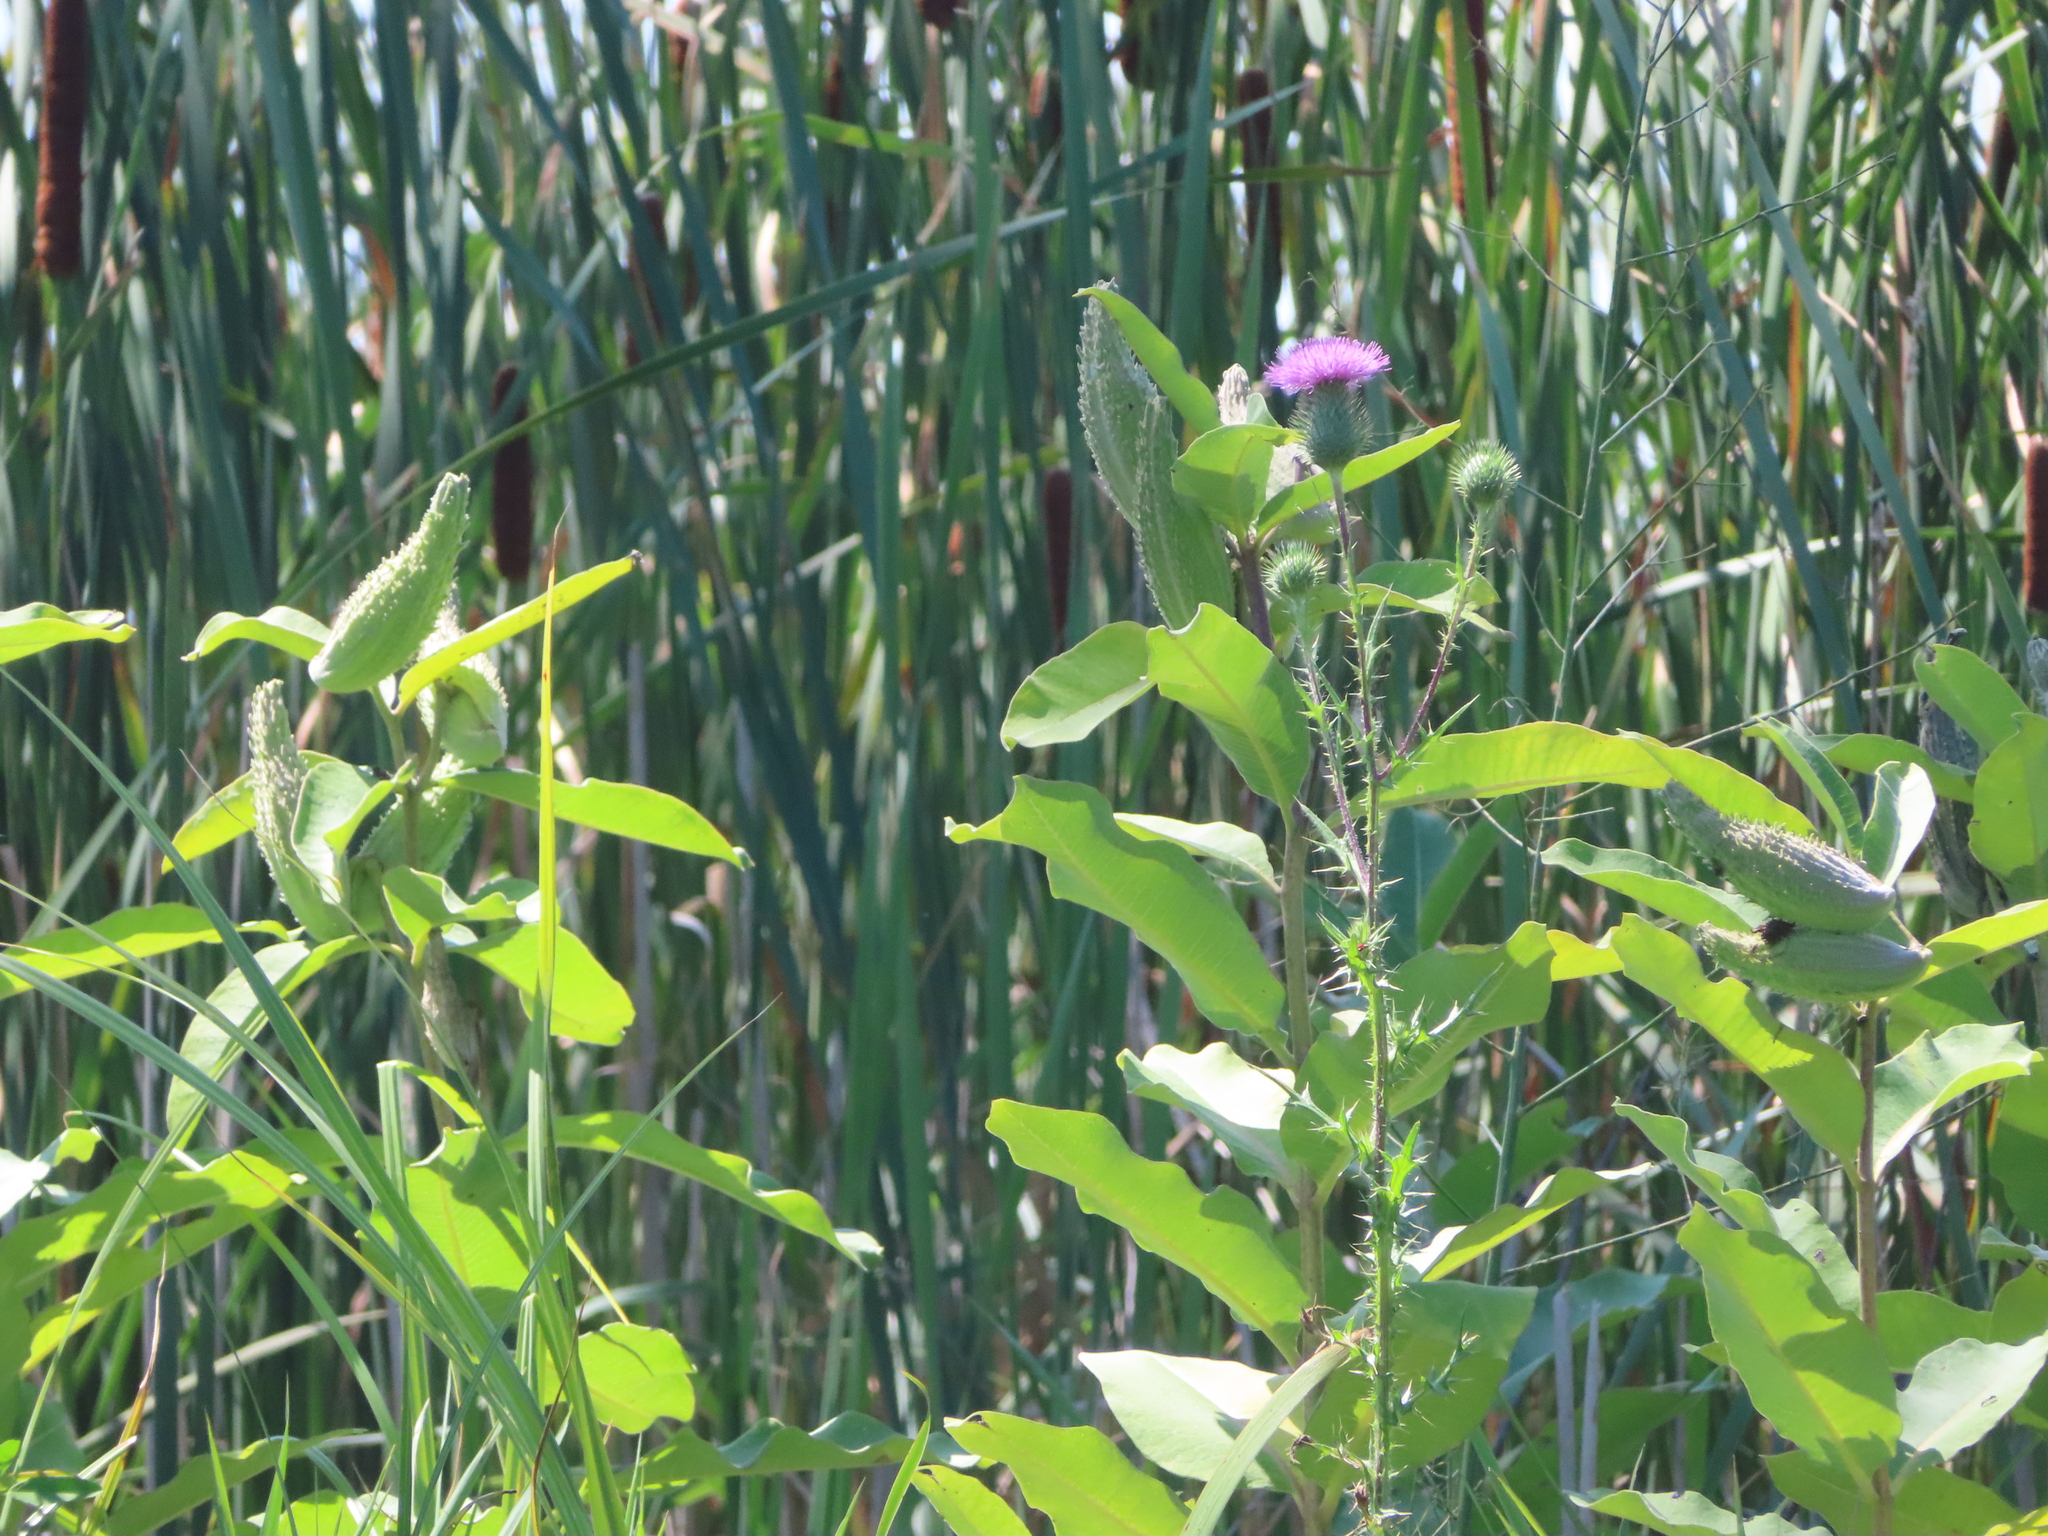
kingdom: Plantae
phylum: Tracheophyta
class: Magnoliopsida
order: Asterales
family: Asteraceae
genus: Cirsium
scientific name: Cirsium vulgare
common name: Bull thistle
